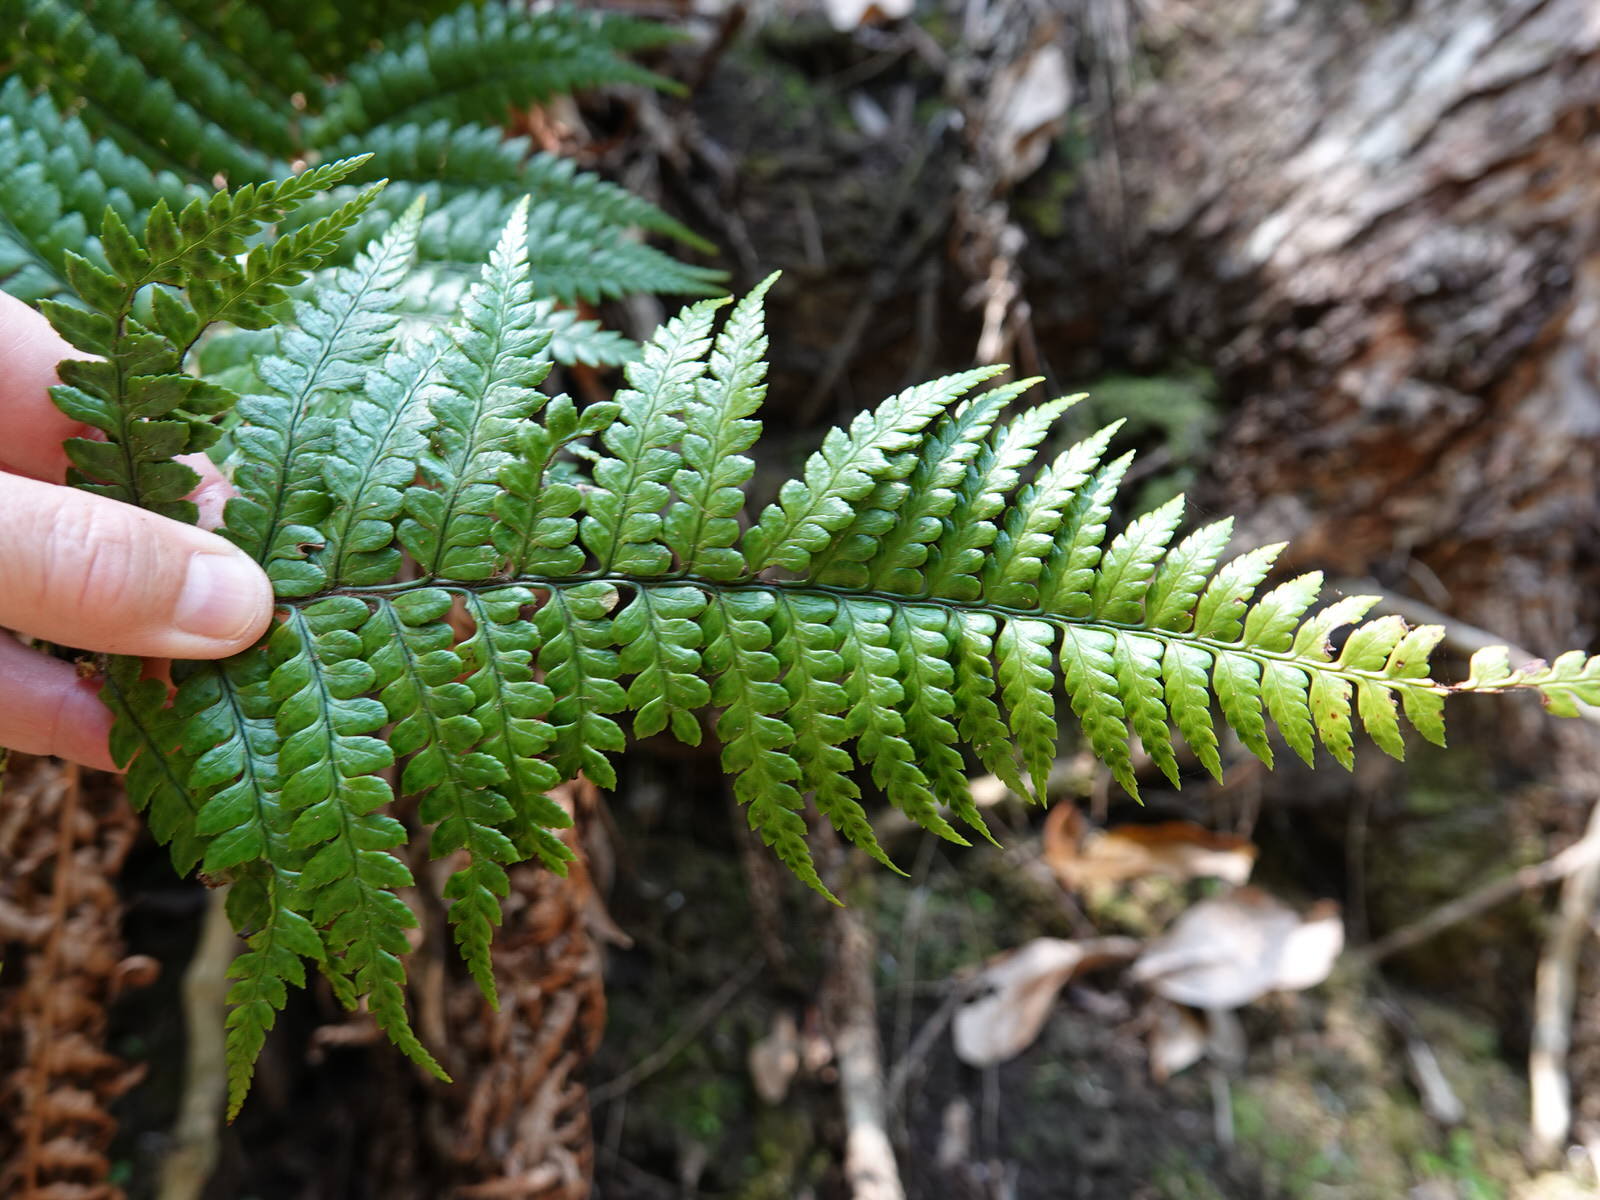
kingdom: Plantae
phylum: Tracheophyta
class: Polypodiopsida
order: Polypodiales
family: Dryopteridaceae
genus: Polystichum
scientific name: Polystichum wawranum
